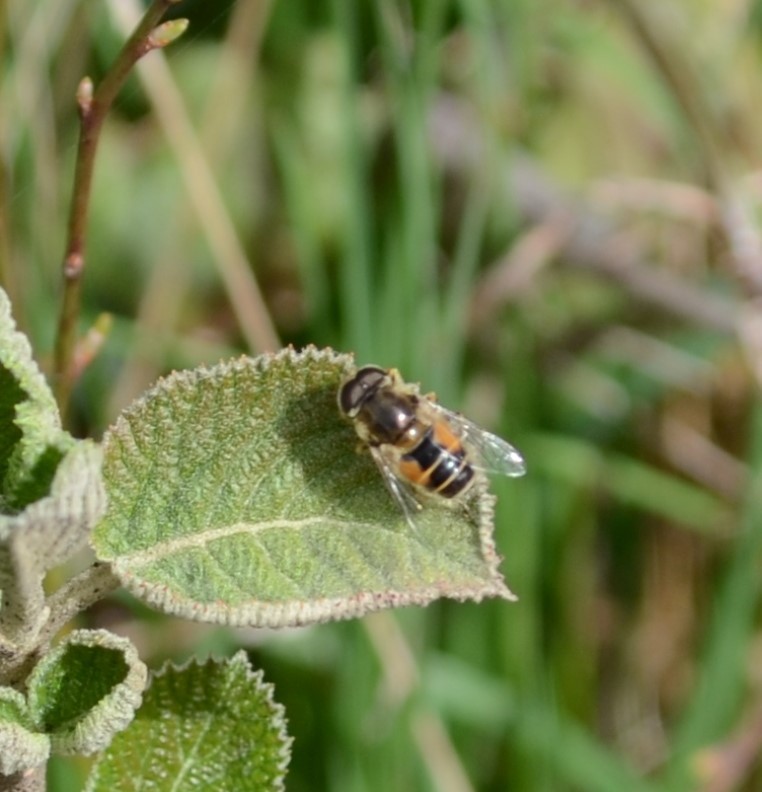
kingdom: Animalia
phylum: Arthropoda
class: Insecta
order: Diptera
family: Syrphidae
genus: Eristalis
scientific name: Eristalis arbustorum
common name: Hover fly
